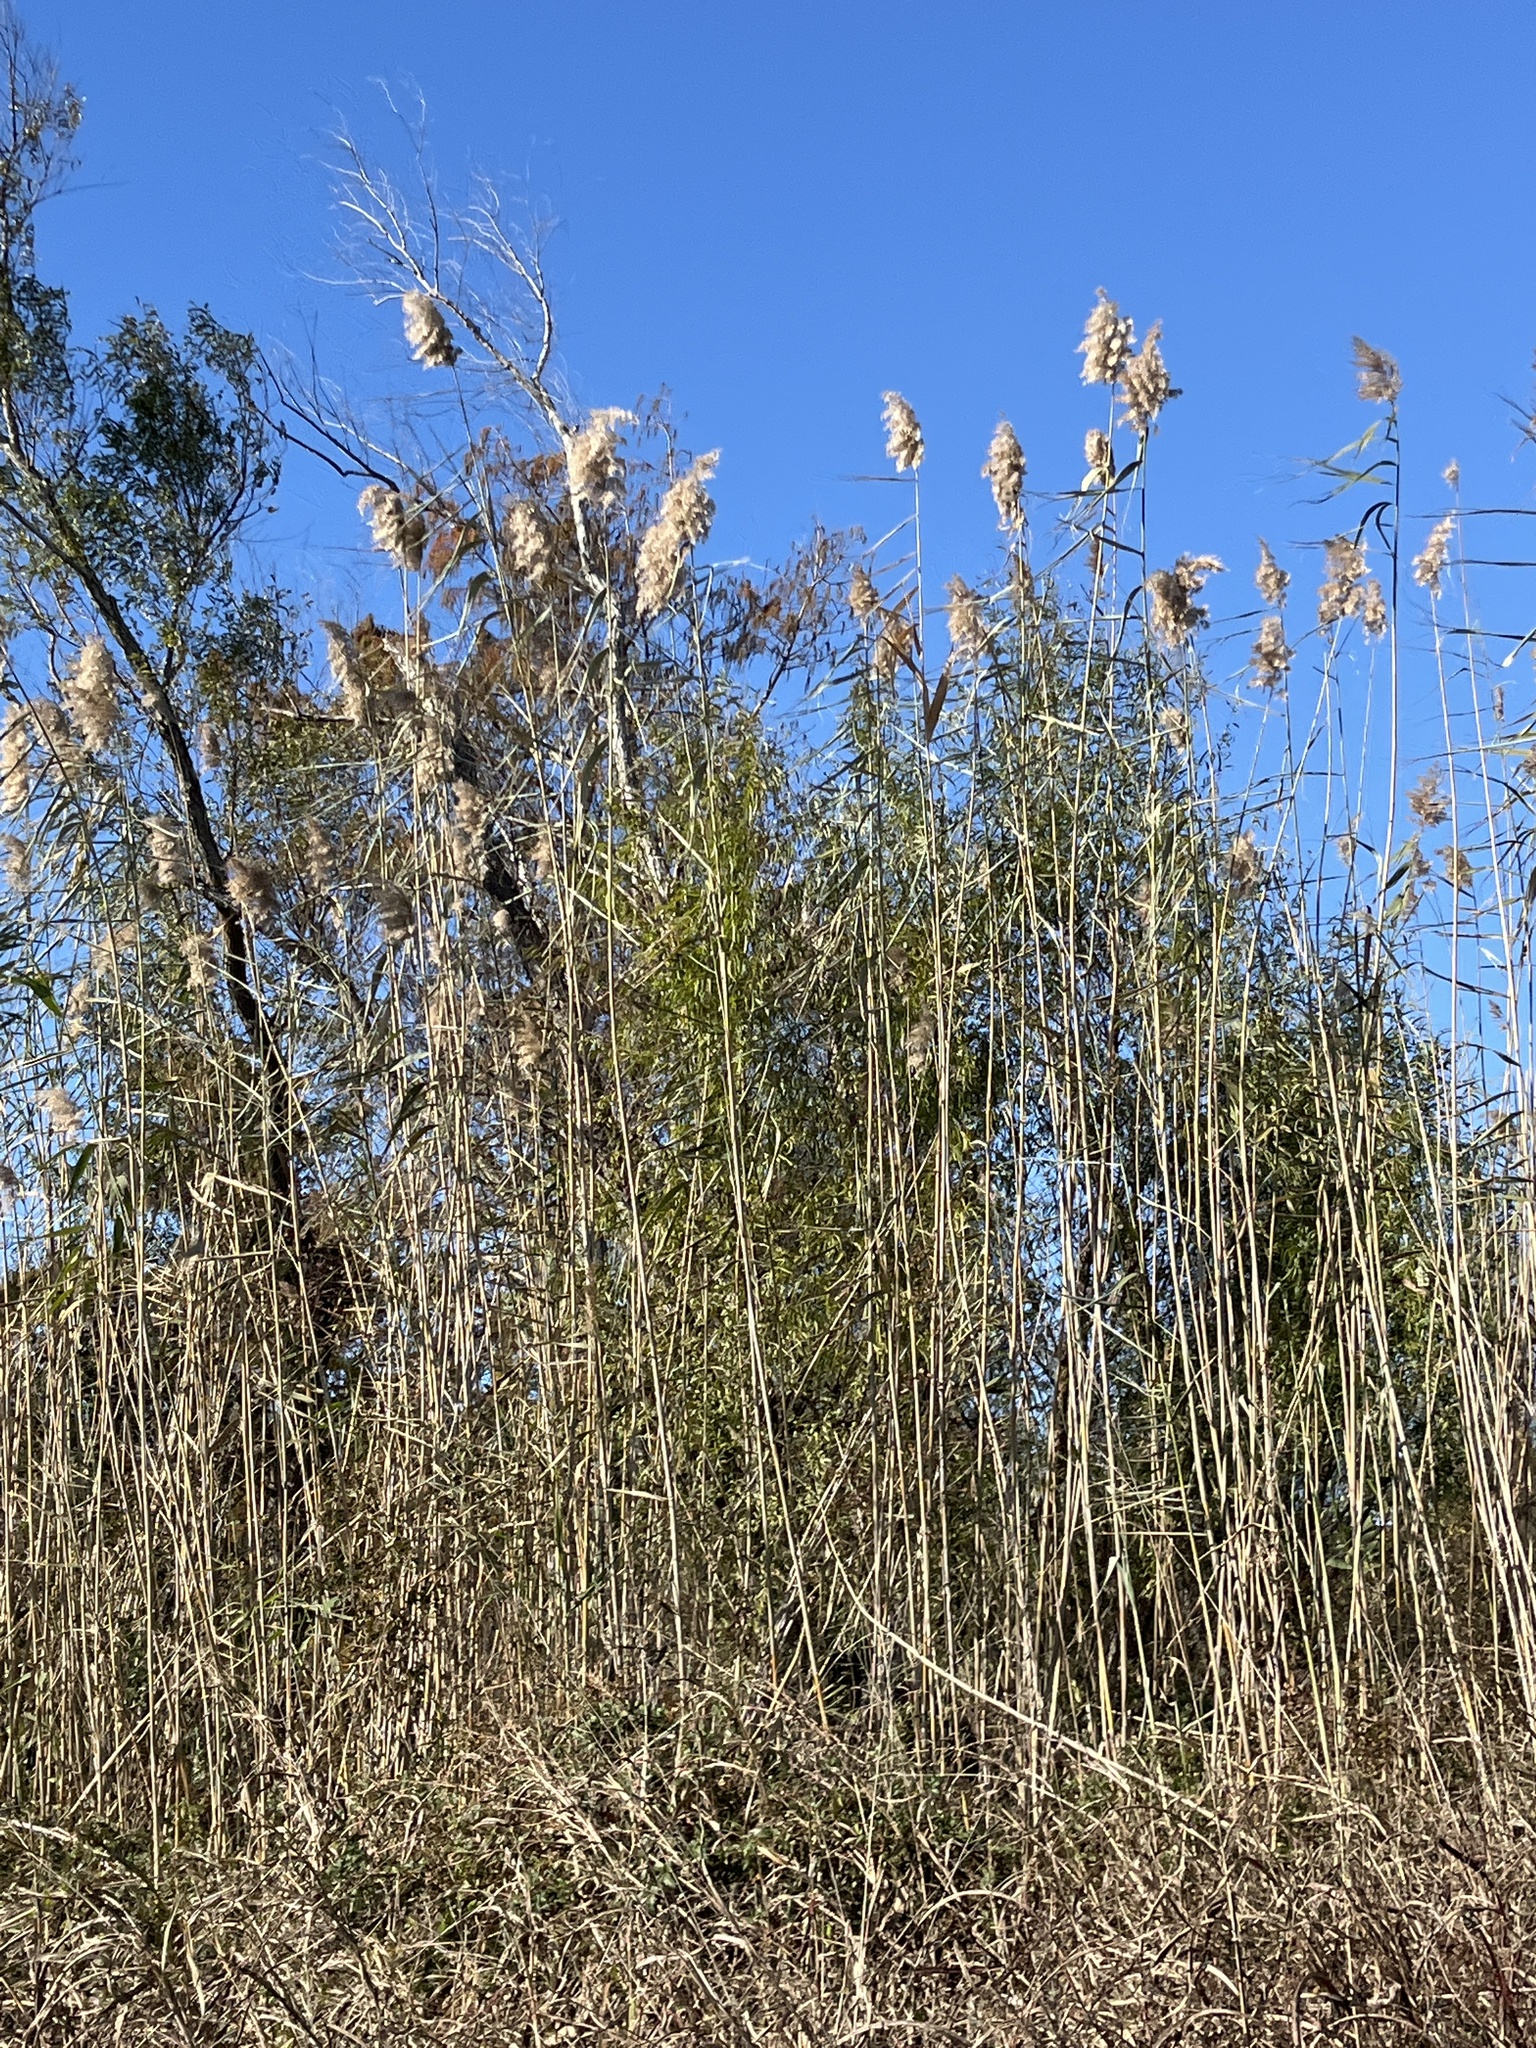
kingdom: Plantae
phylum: Tracheophyta
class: Liliopsida
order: Poales
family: Poaceae
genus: Phragmites
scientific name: Phragmites australis
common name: Common reed
